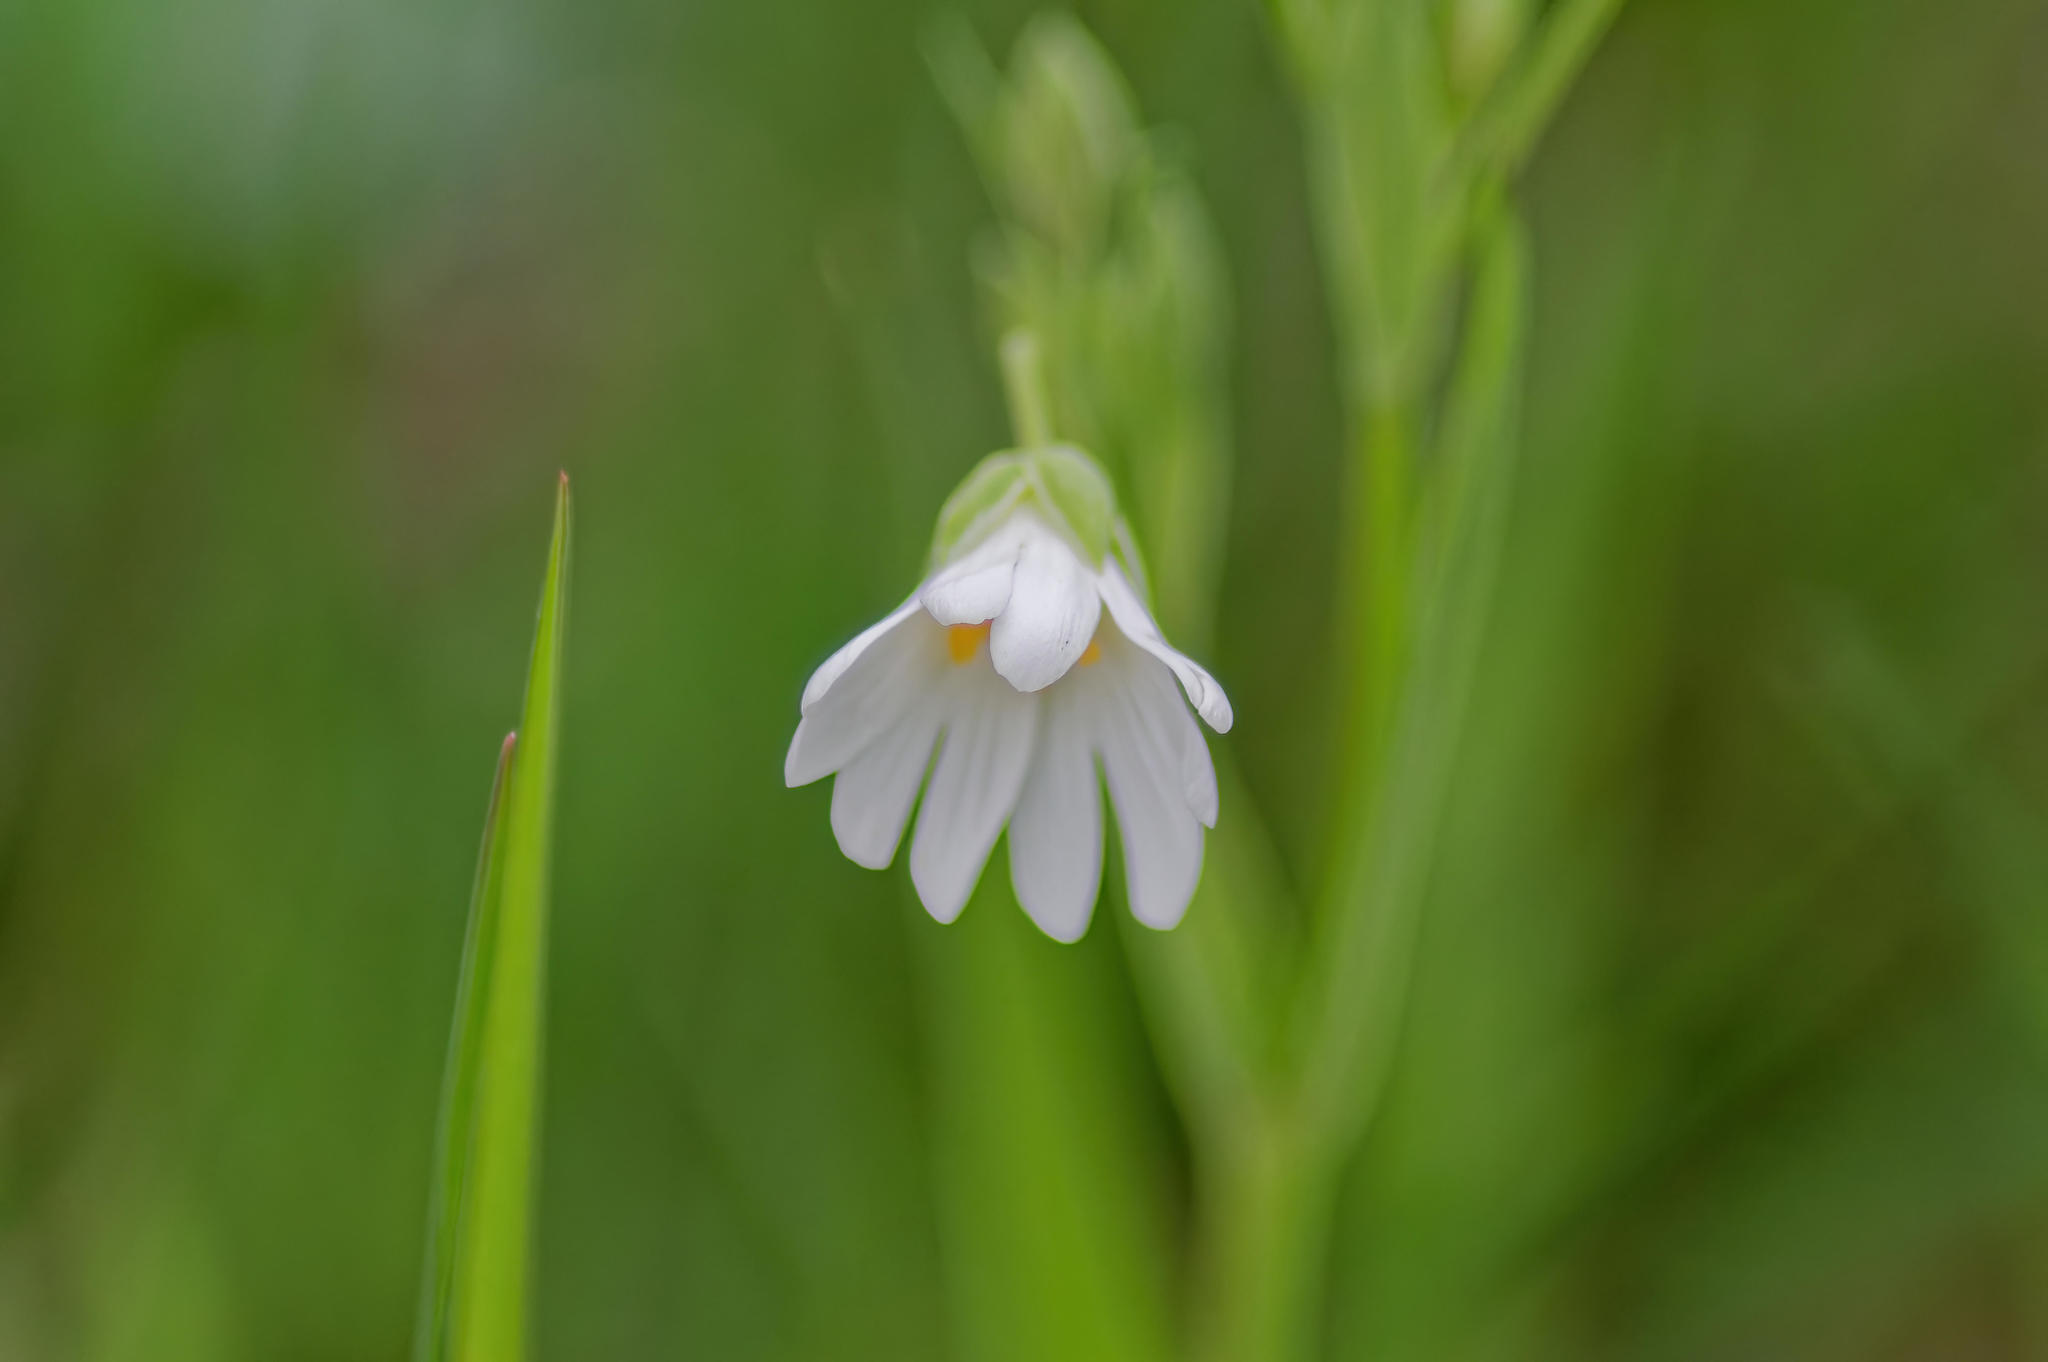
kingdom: Plantae
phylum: Tracheophyta
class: Magnoliopsida
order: Caryophyllales
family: Caryophyllaceae
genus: Rabelera
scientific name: Rabelera holostea
